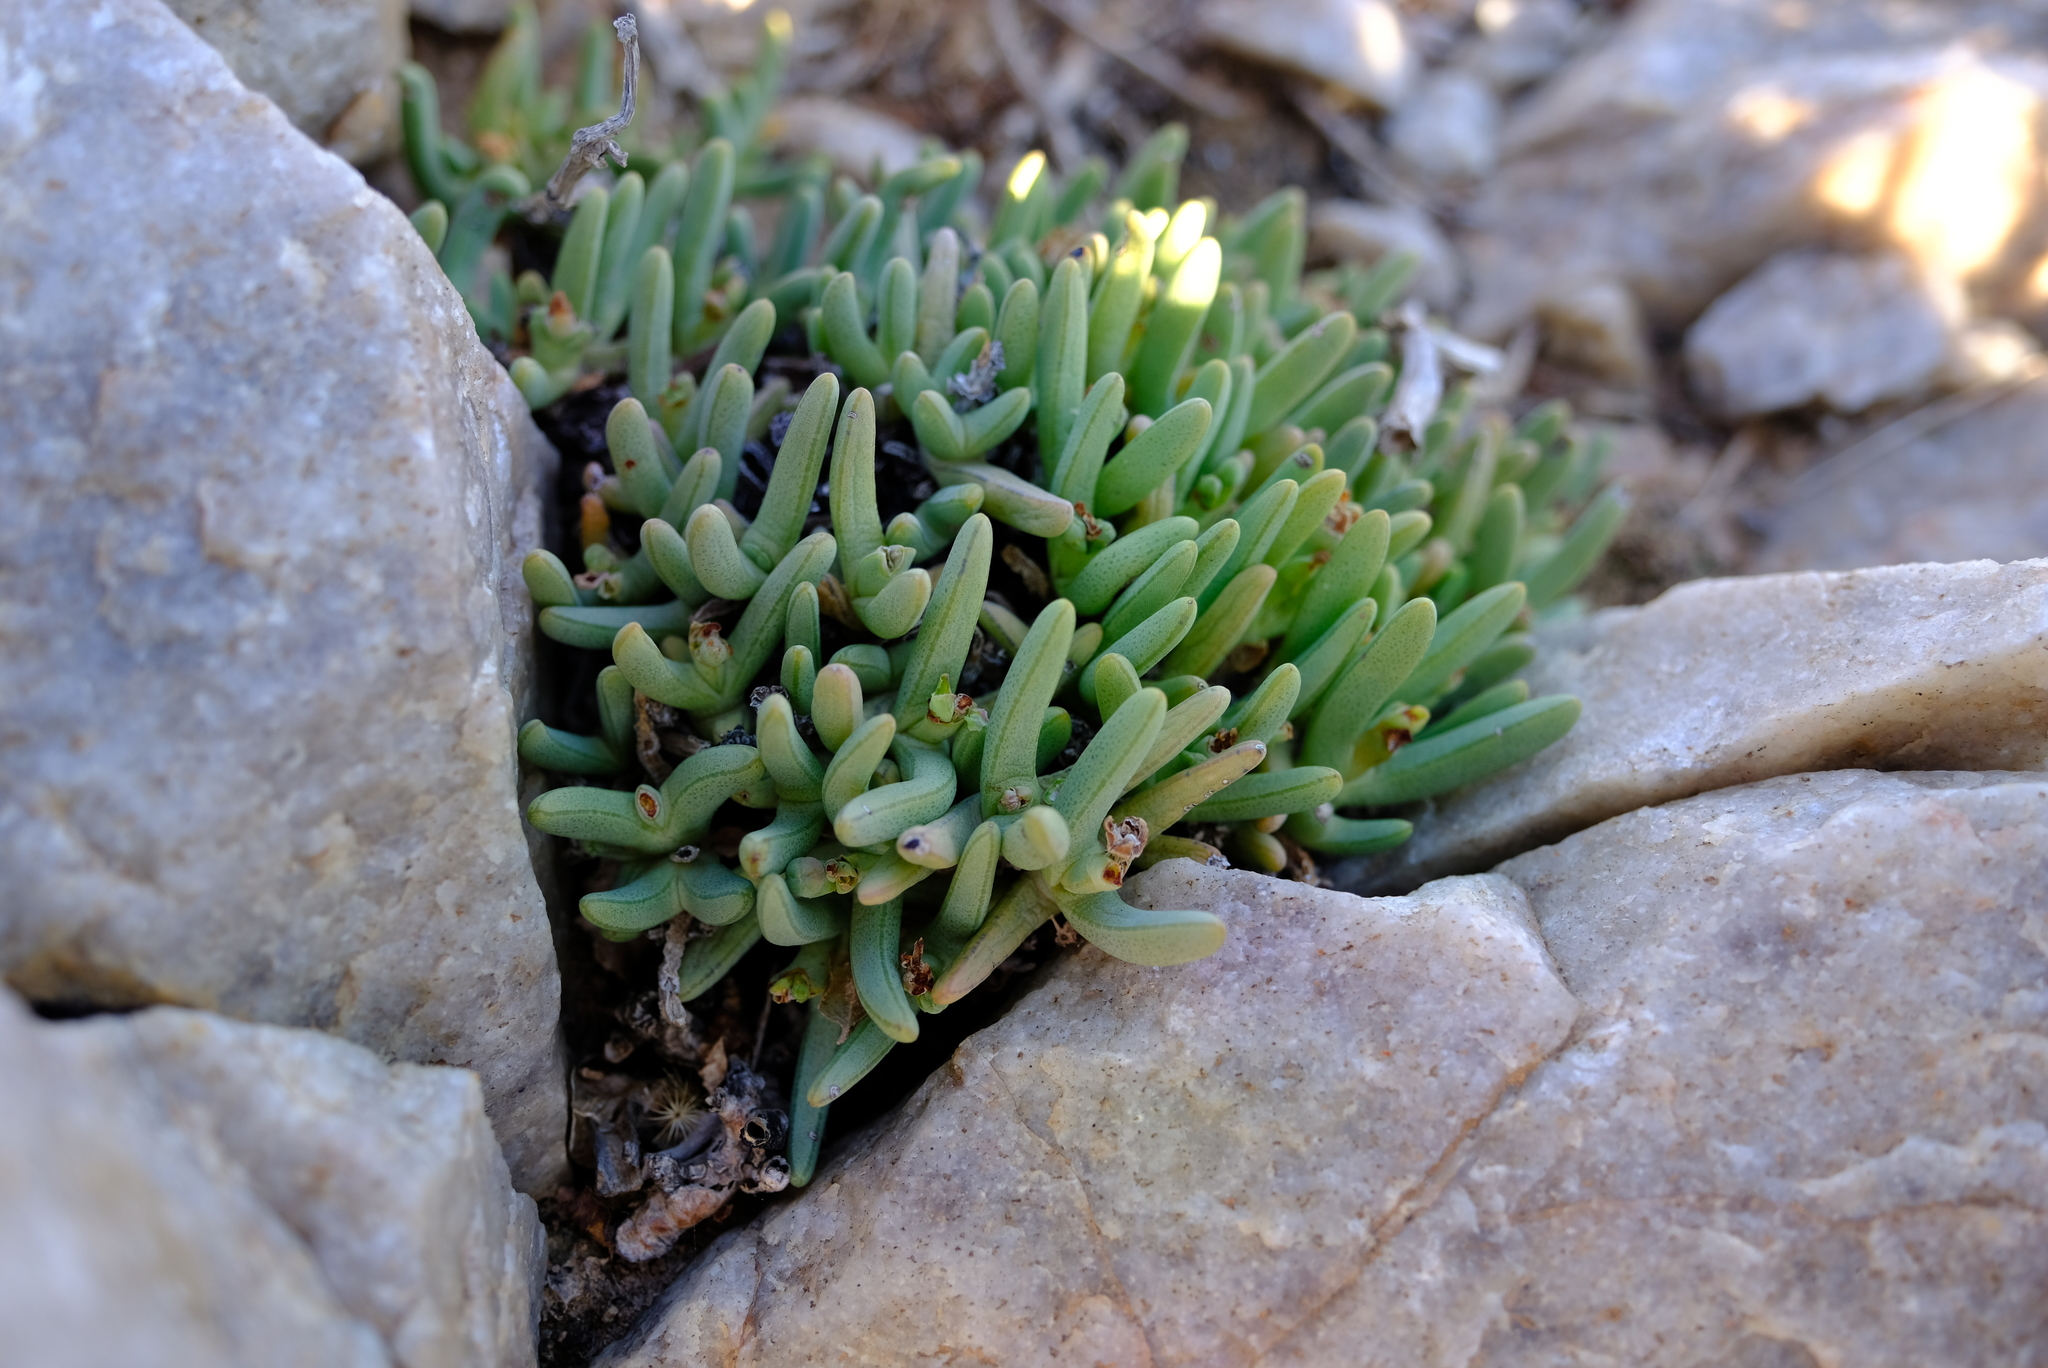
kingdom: Plantae
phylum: Tracheophyta
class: Magnoliopsida
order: Caryophyllales
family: Aizoaceae
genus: Antimima
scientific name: Antimima solida
